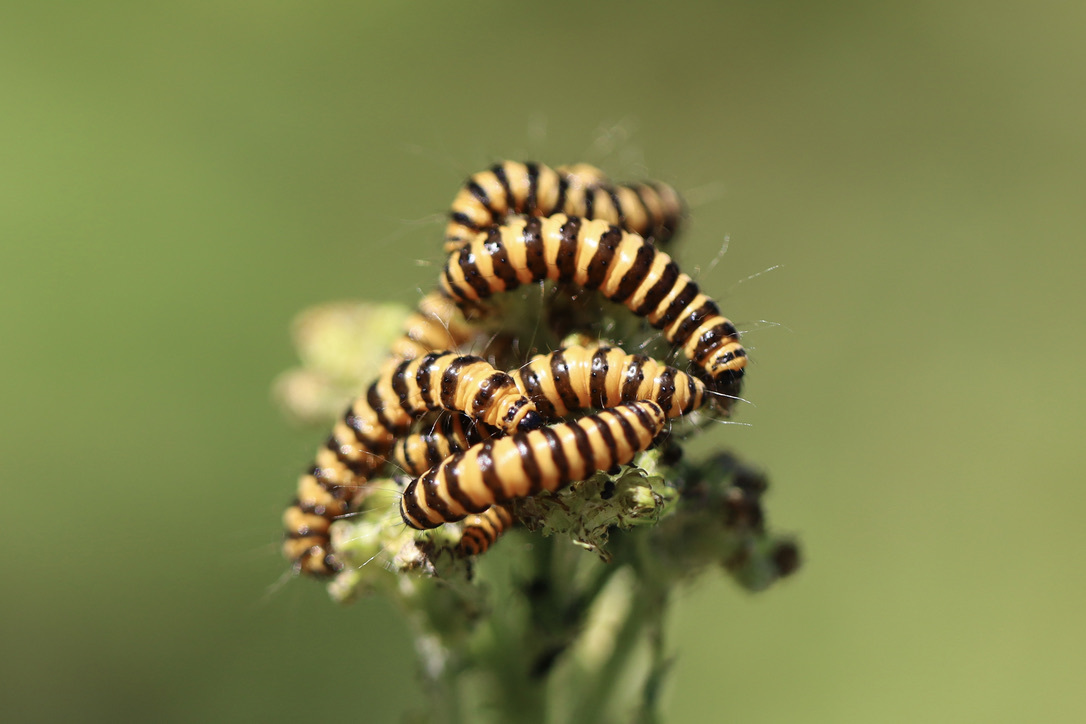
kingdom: Animalia
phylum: Arthropoda
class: Insecta
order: Lepidoptera
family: Erebidae
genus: Tyria
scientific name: Tyria jacobaeae
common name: Cinnabar
